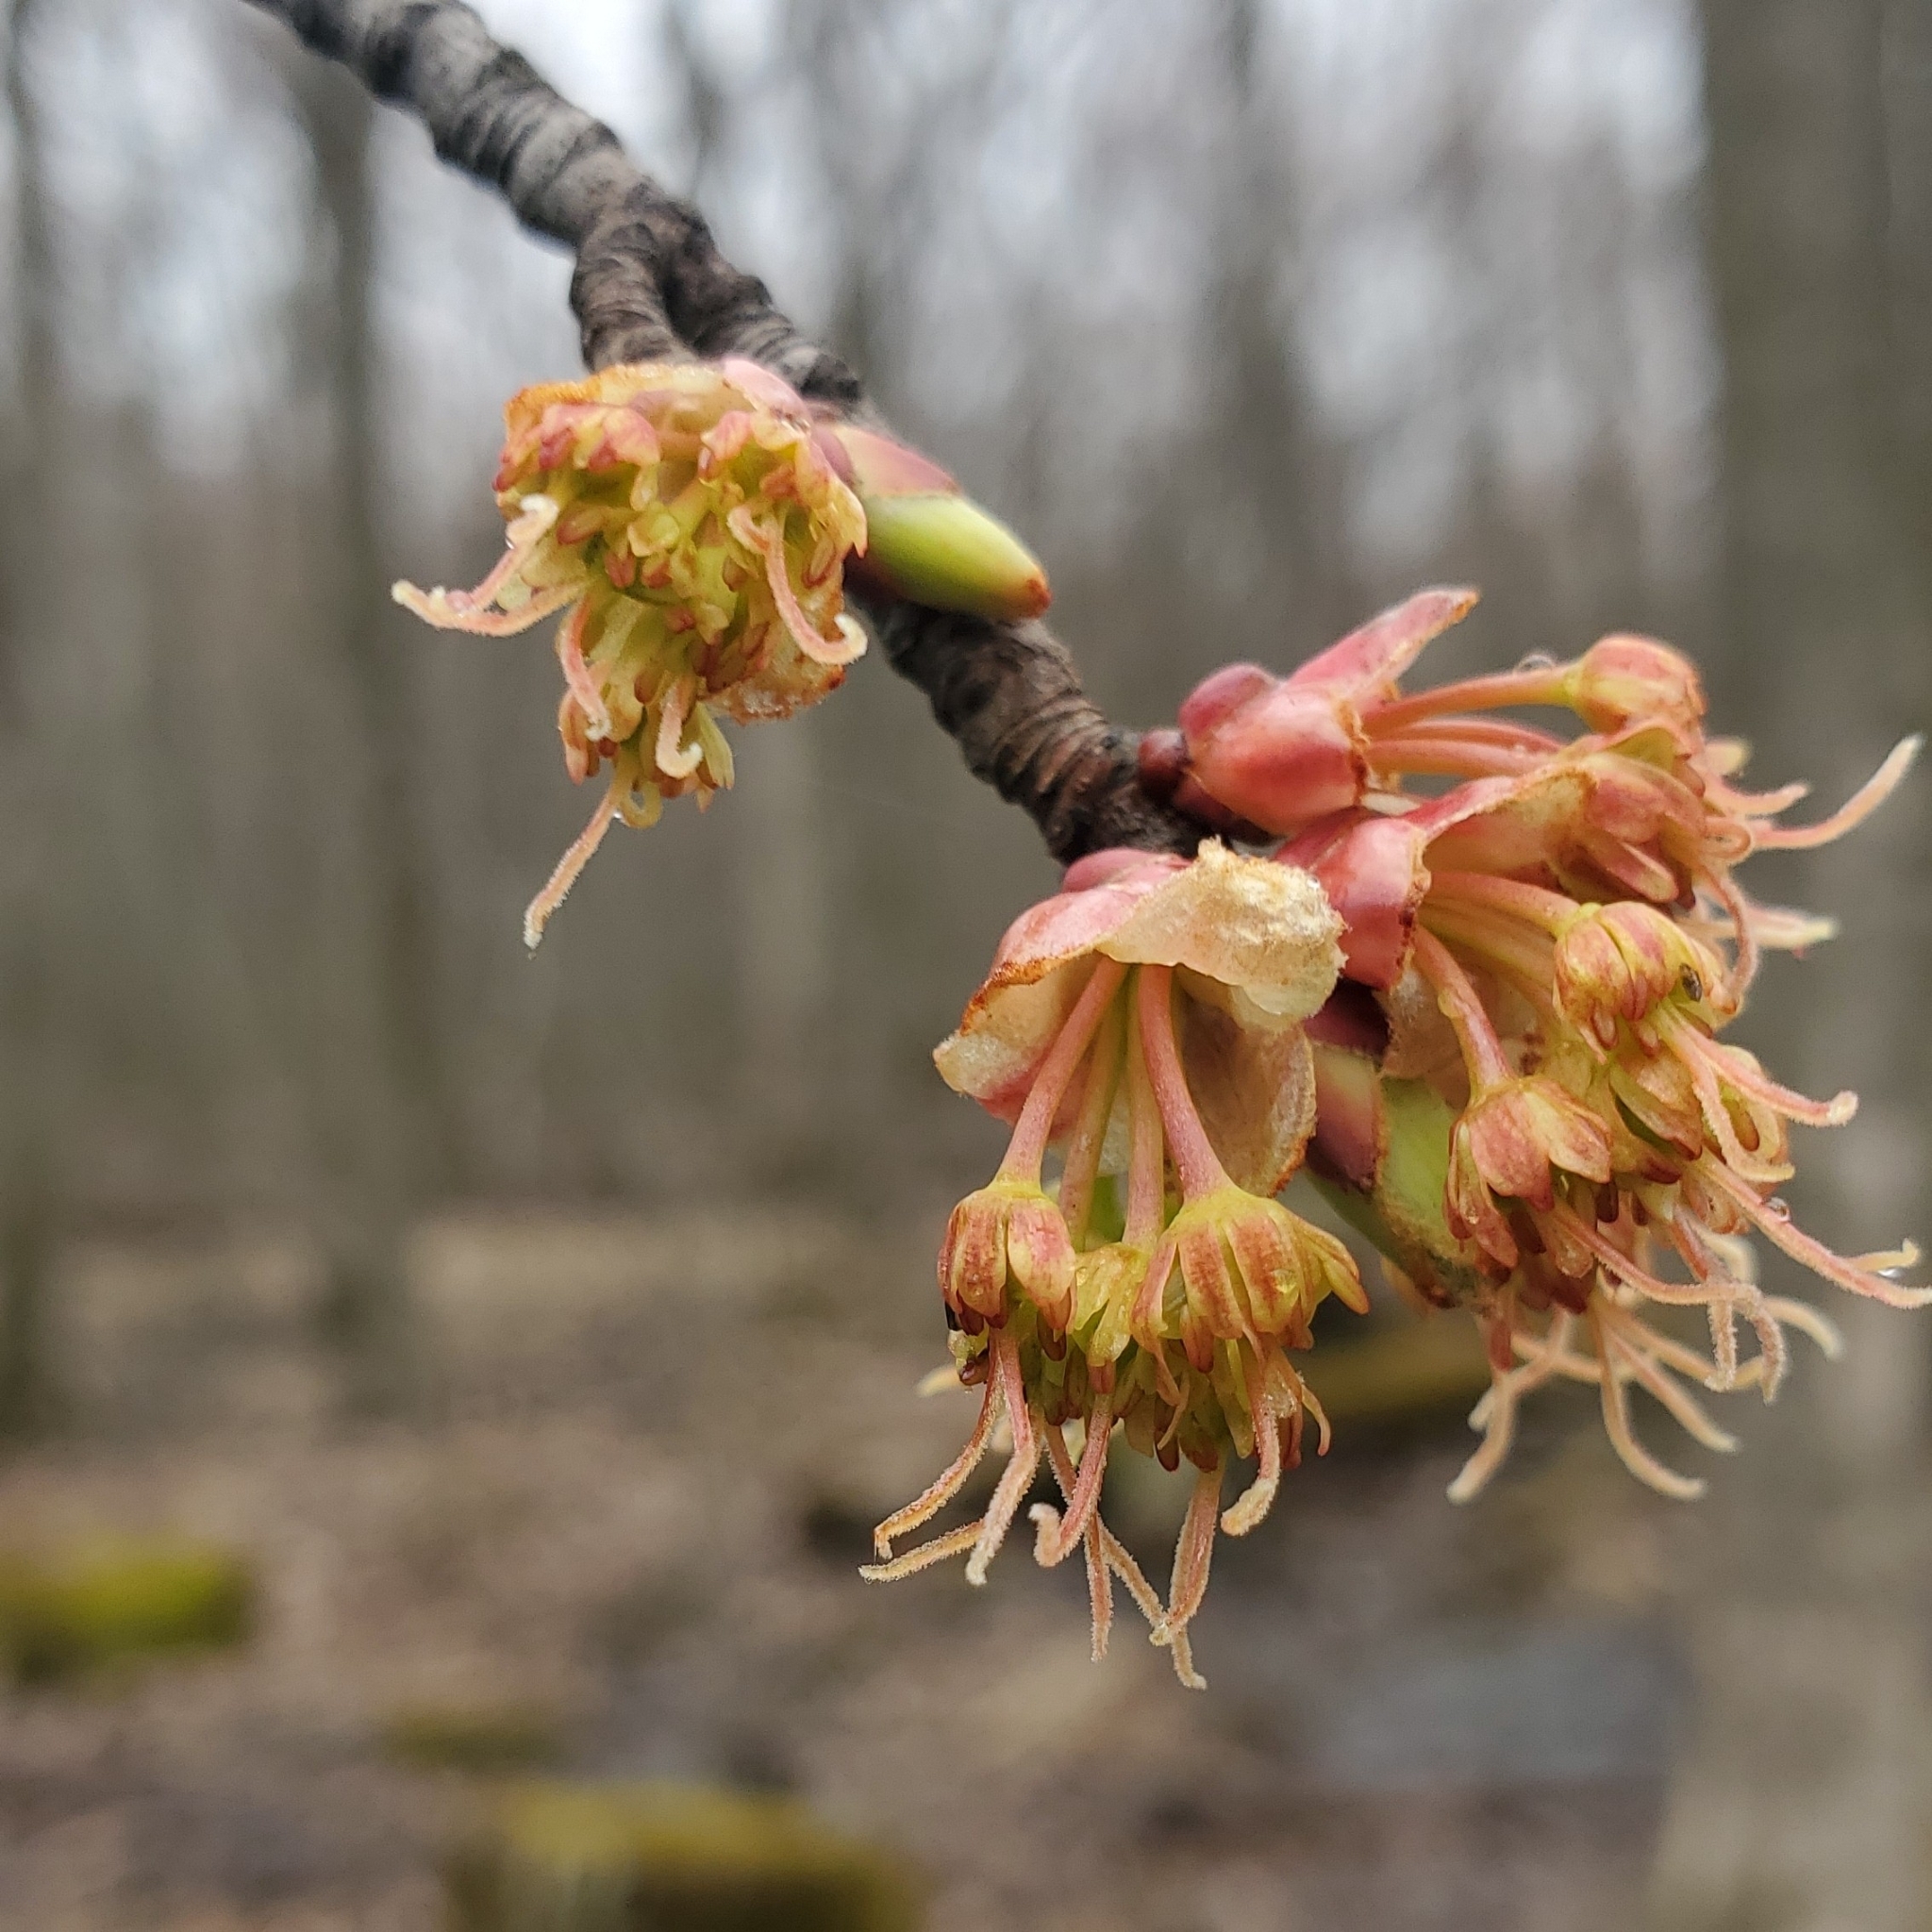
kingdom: Plantae
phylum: Tracheophyta
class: Magnoliopsida
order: Sapindales
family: Sapindaceae
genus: Acer
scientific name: Acer rubrum
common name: Red maple
